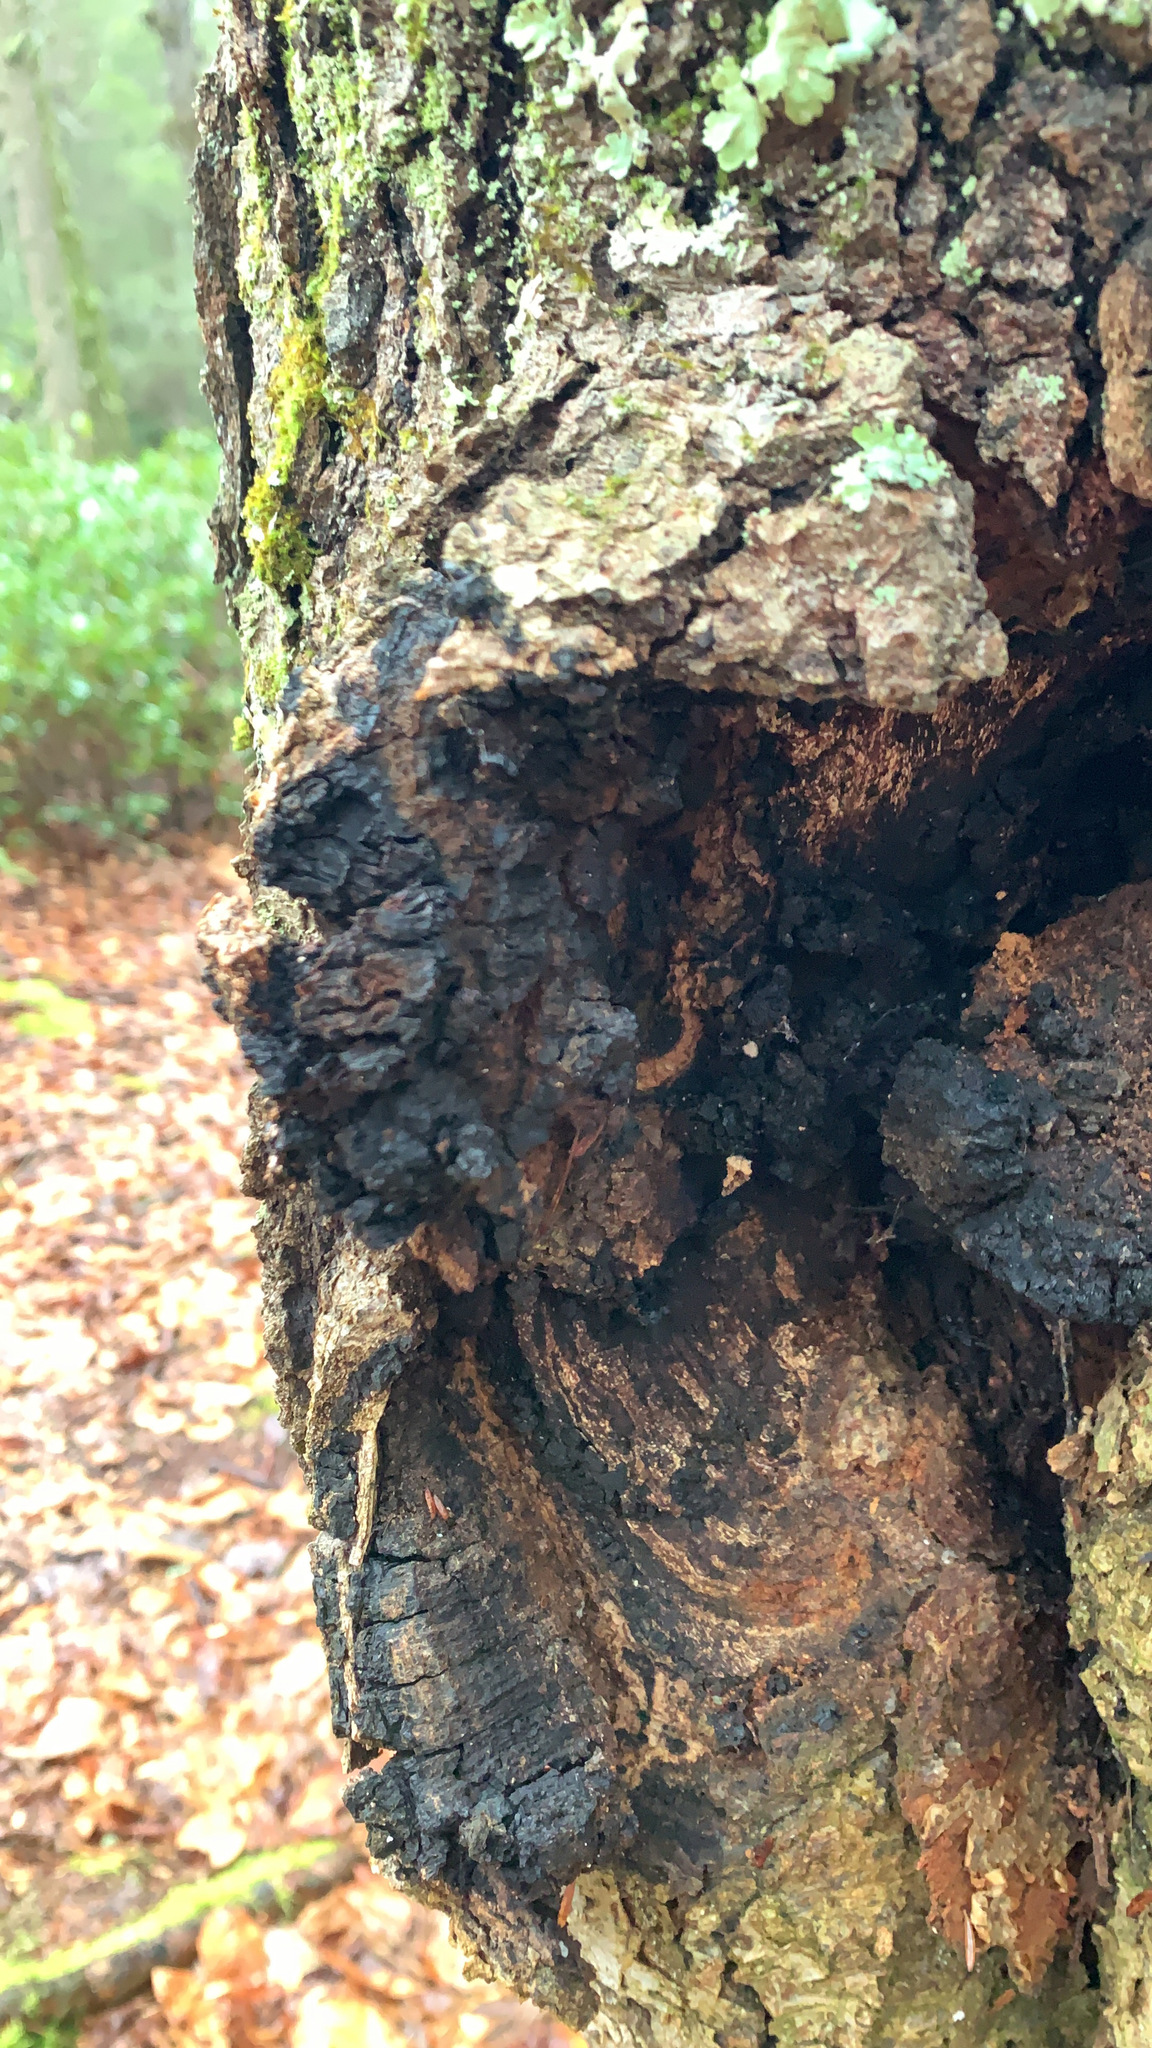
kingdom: Fungi
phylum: Basidiomycota
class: Agaricomycetes
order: Hymenochaetales
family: Hymenochaetaceae
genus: Inonotus
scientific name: Inonotus obliquus
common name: Chaga
